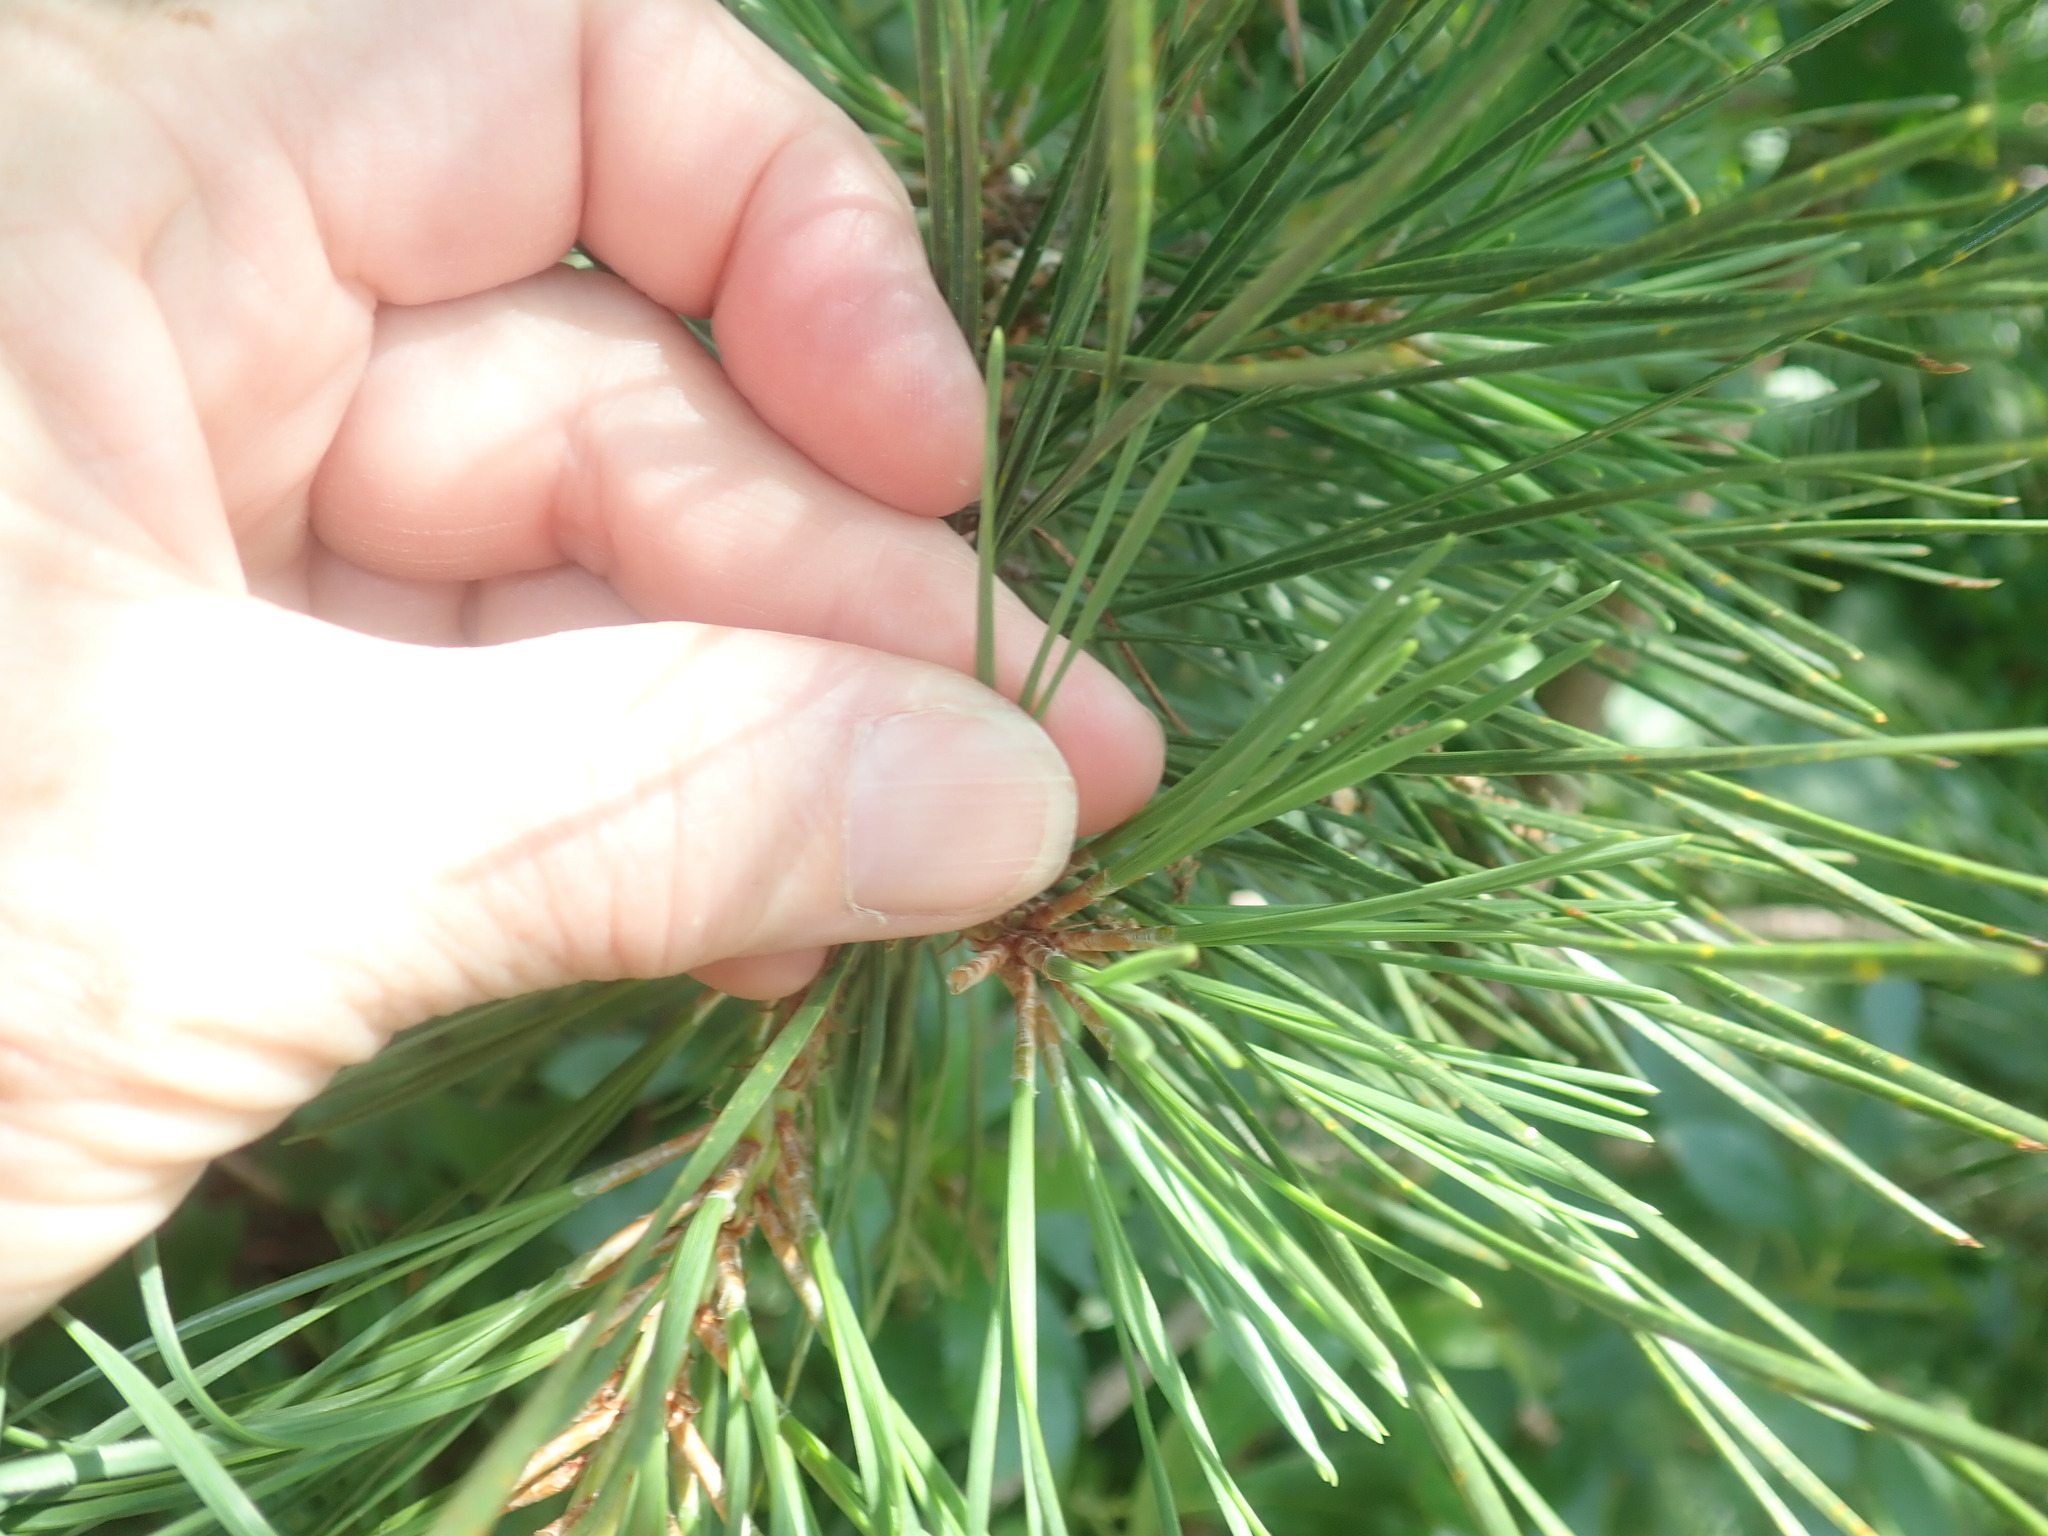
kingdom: Plantae
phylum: Tracheophyta
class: Pinopsida
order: Pinales
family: Pinaceae
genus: Pinus
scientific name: Pinus rigida
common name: Pitch pine
